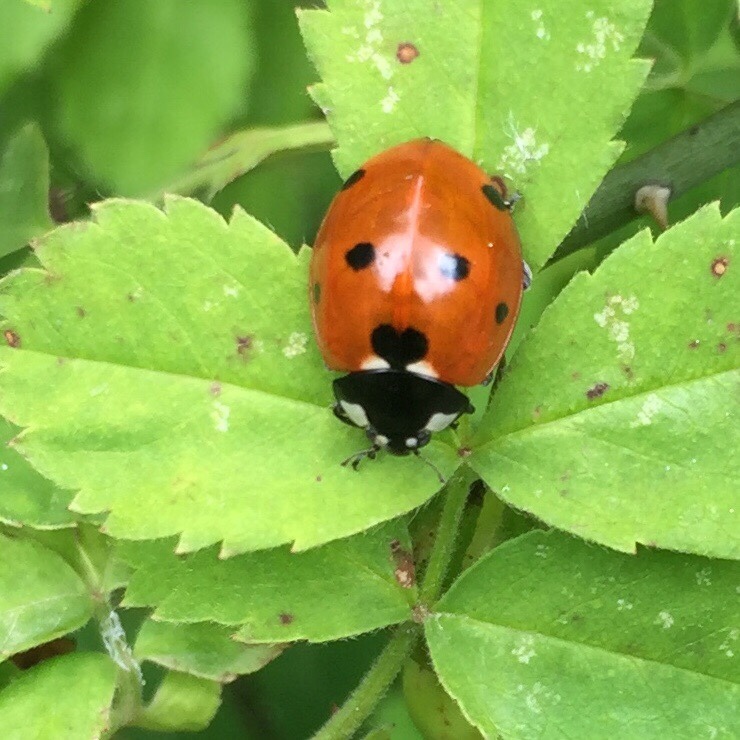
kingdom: Animalia
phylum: Arthropoda
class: Insecta
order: Coleoptera
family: Coccinellidae
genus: Coccinella
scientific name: Coccinella septempunctata
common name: Sevenspotted lady beetle
